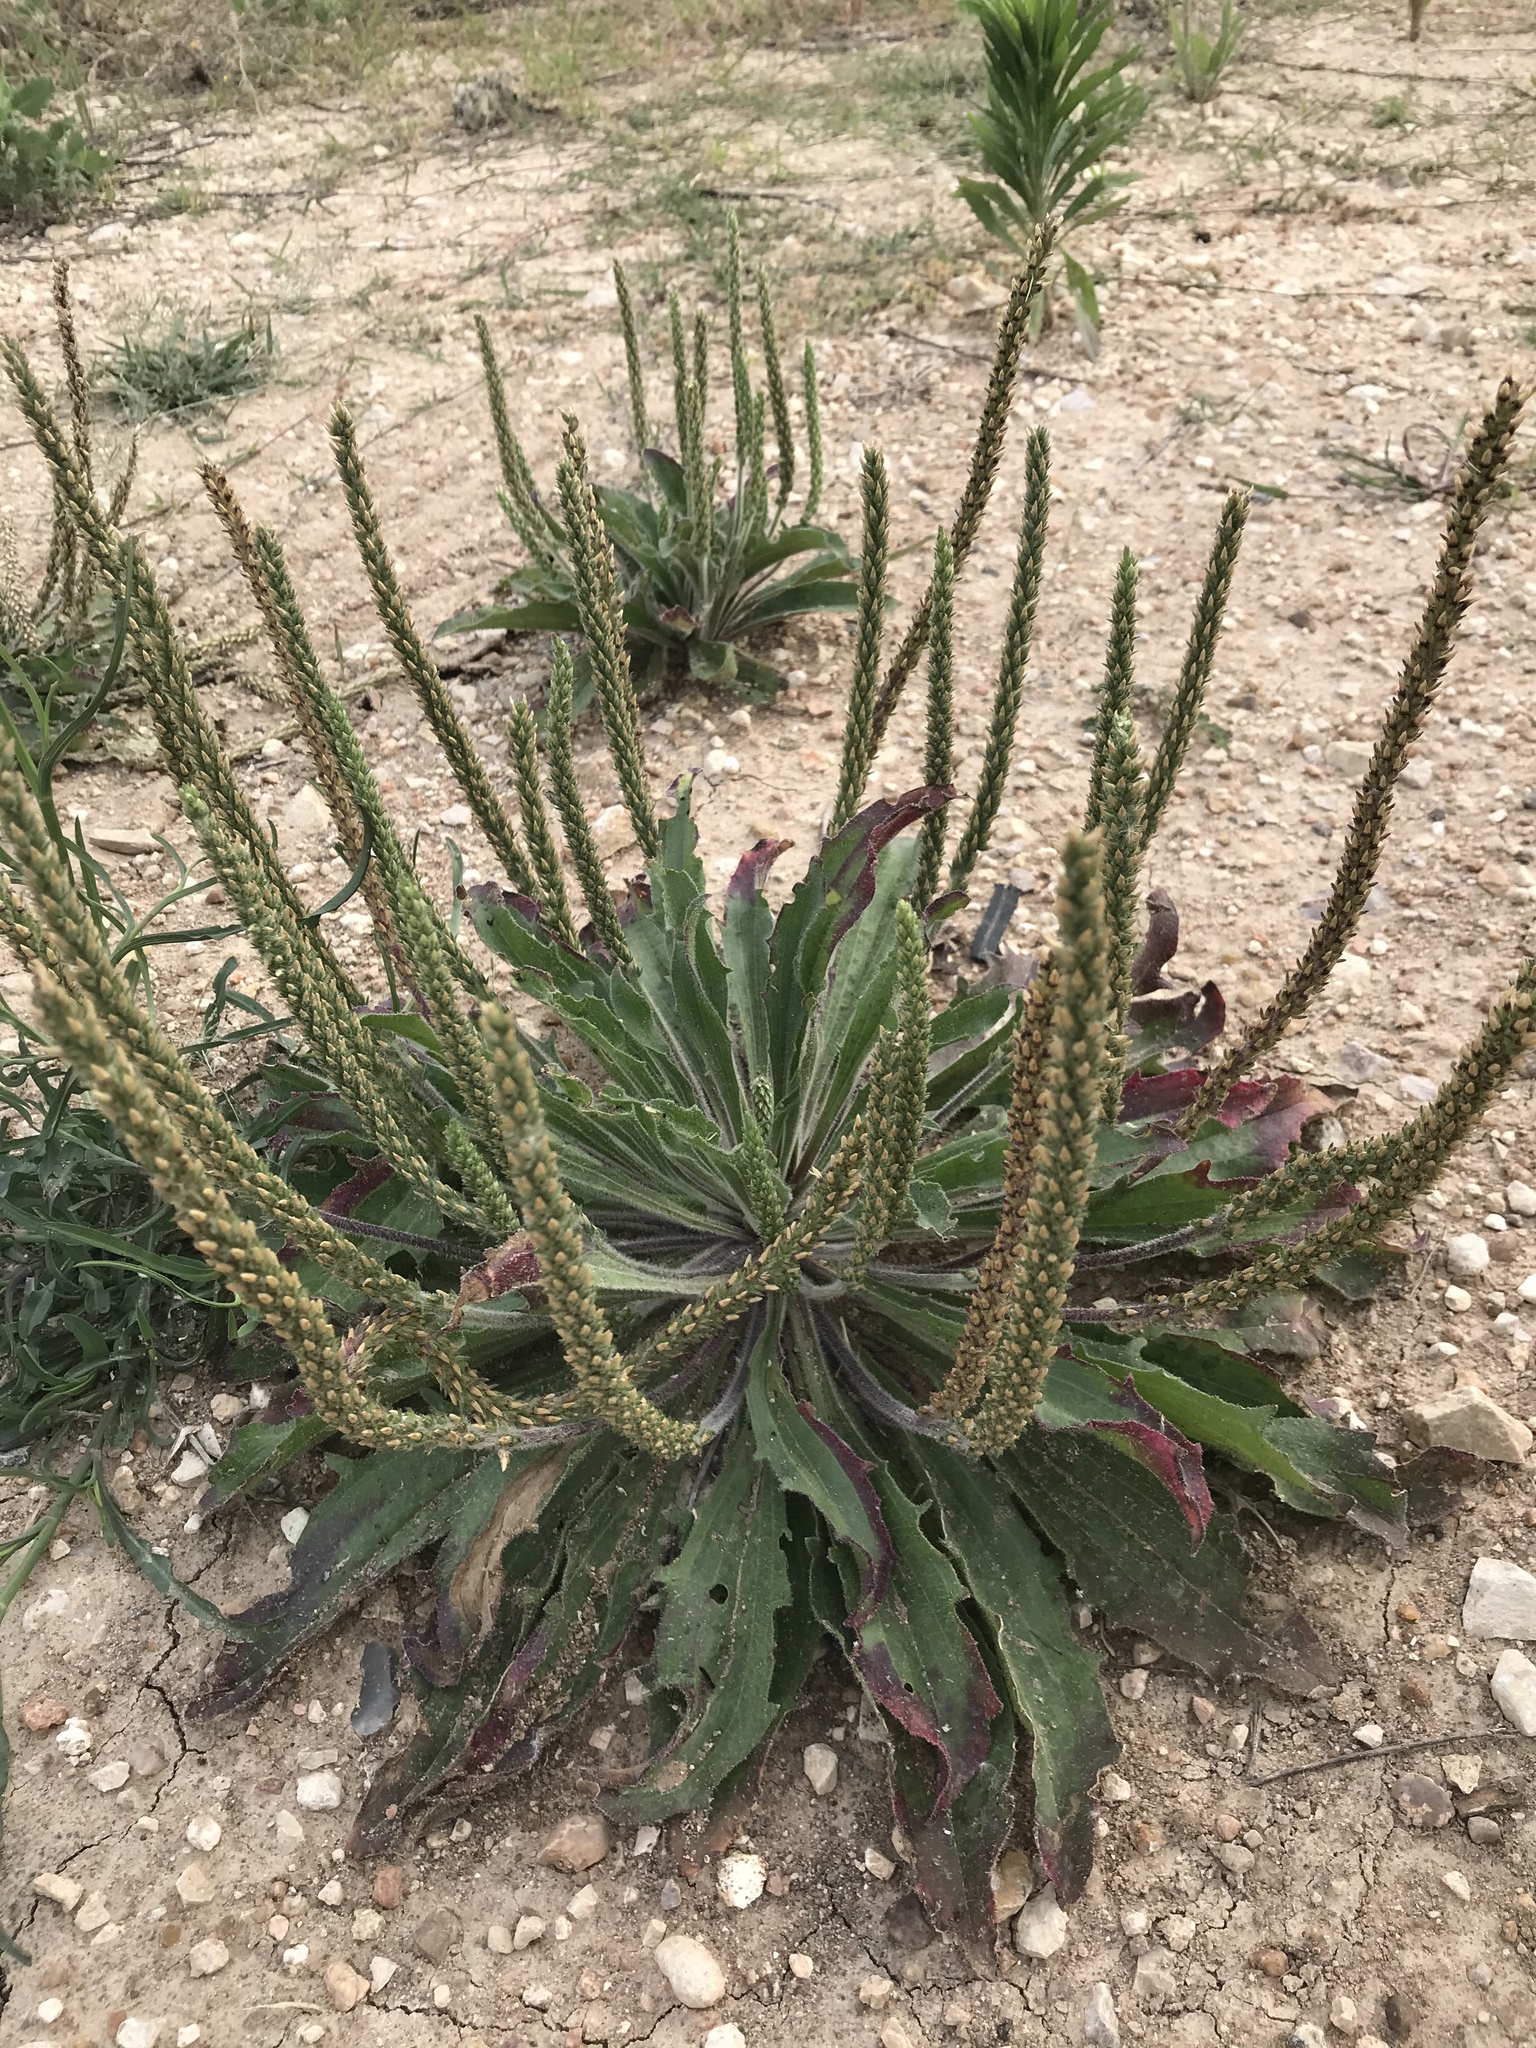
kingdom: Plantae
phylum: Tracheophyta
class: Magnoliopsida
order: Lamiales
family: Plantaginaceae
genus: Plantago
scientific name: Plantago rhodosperma
